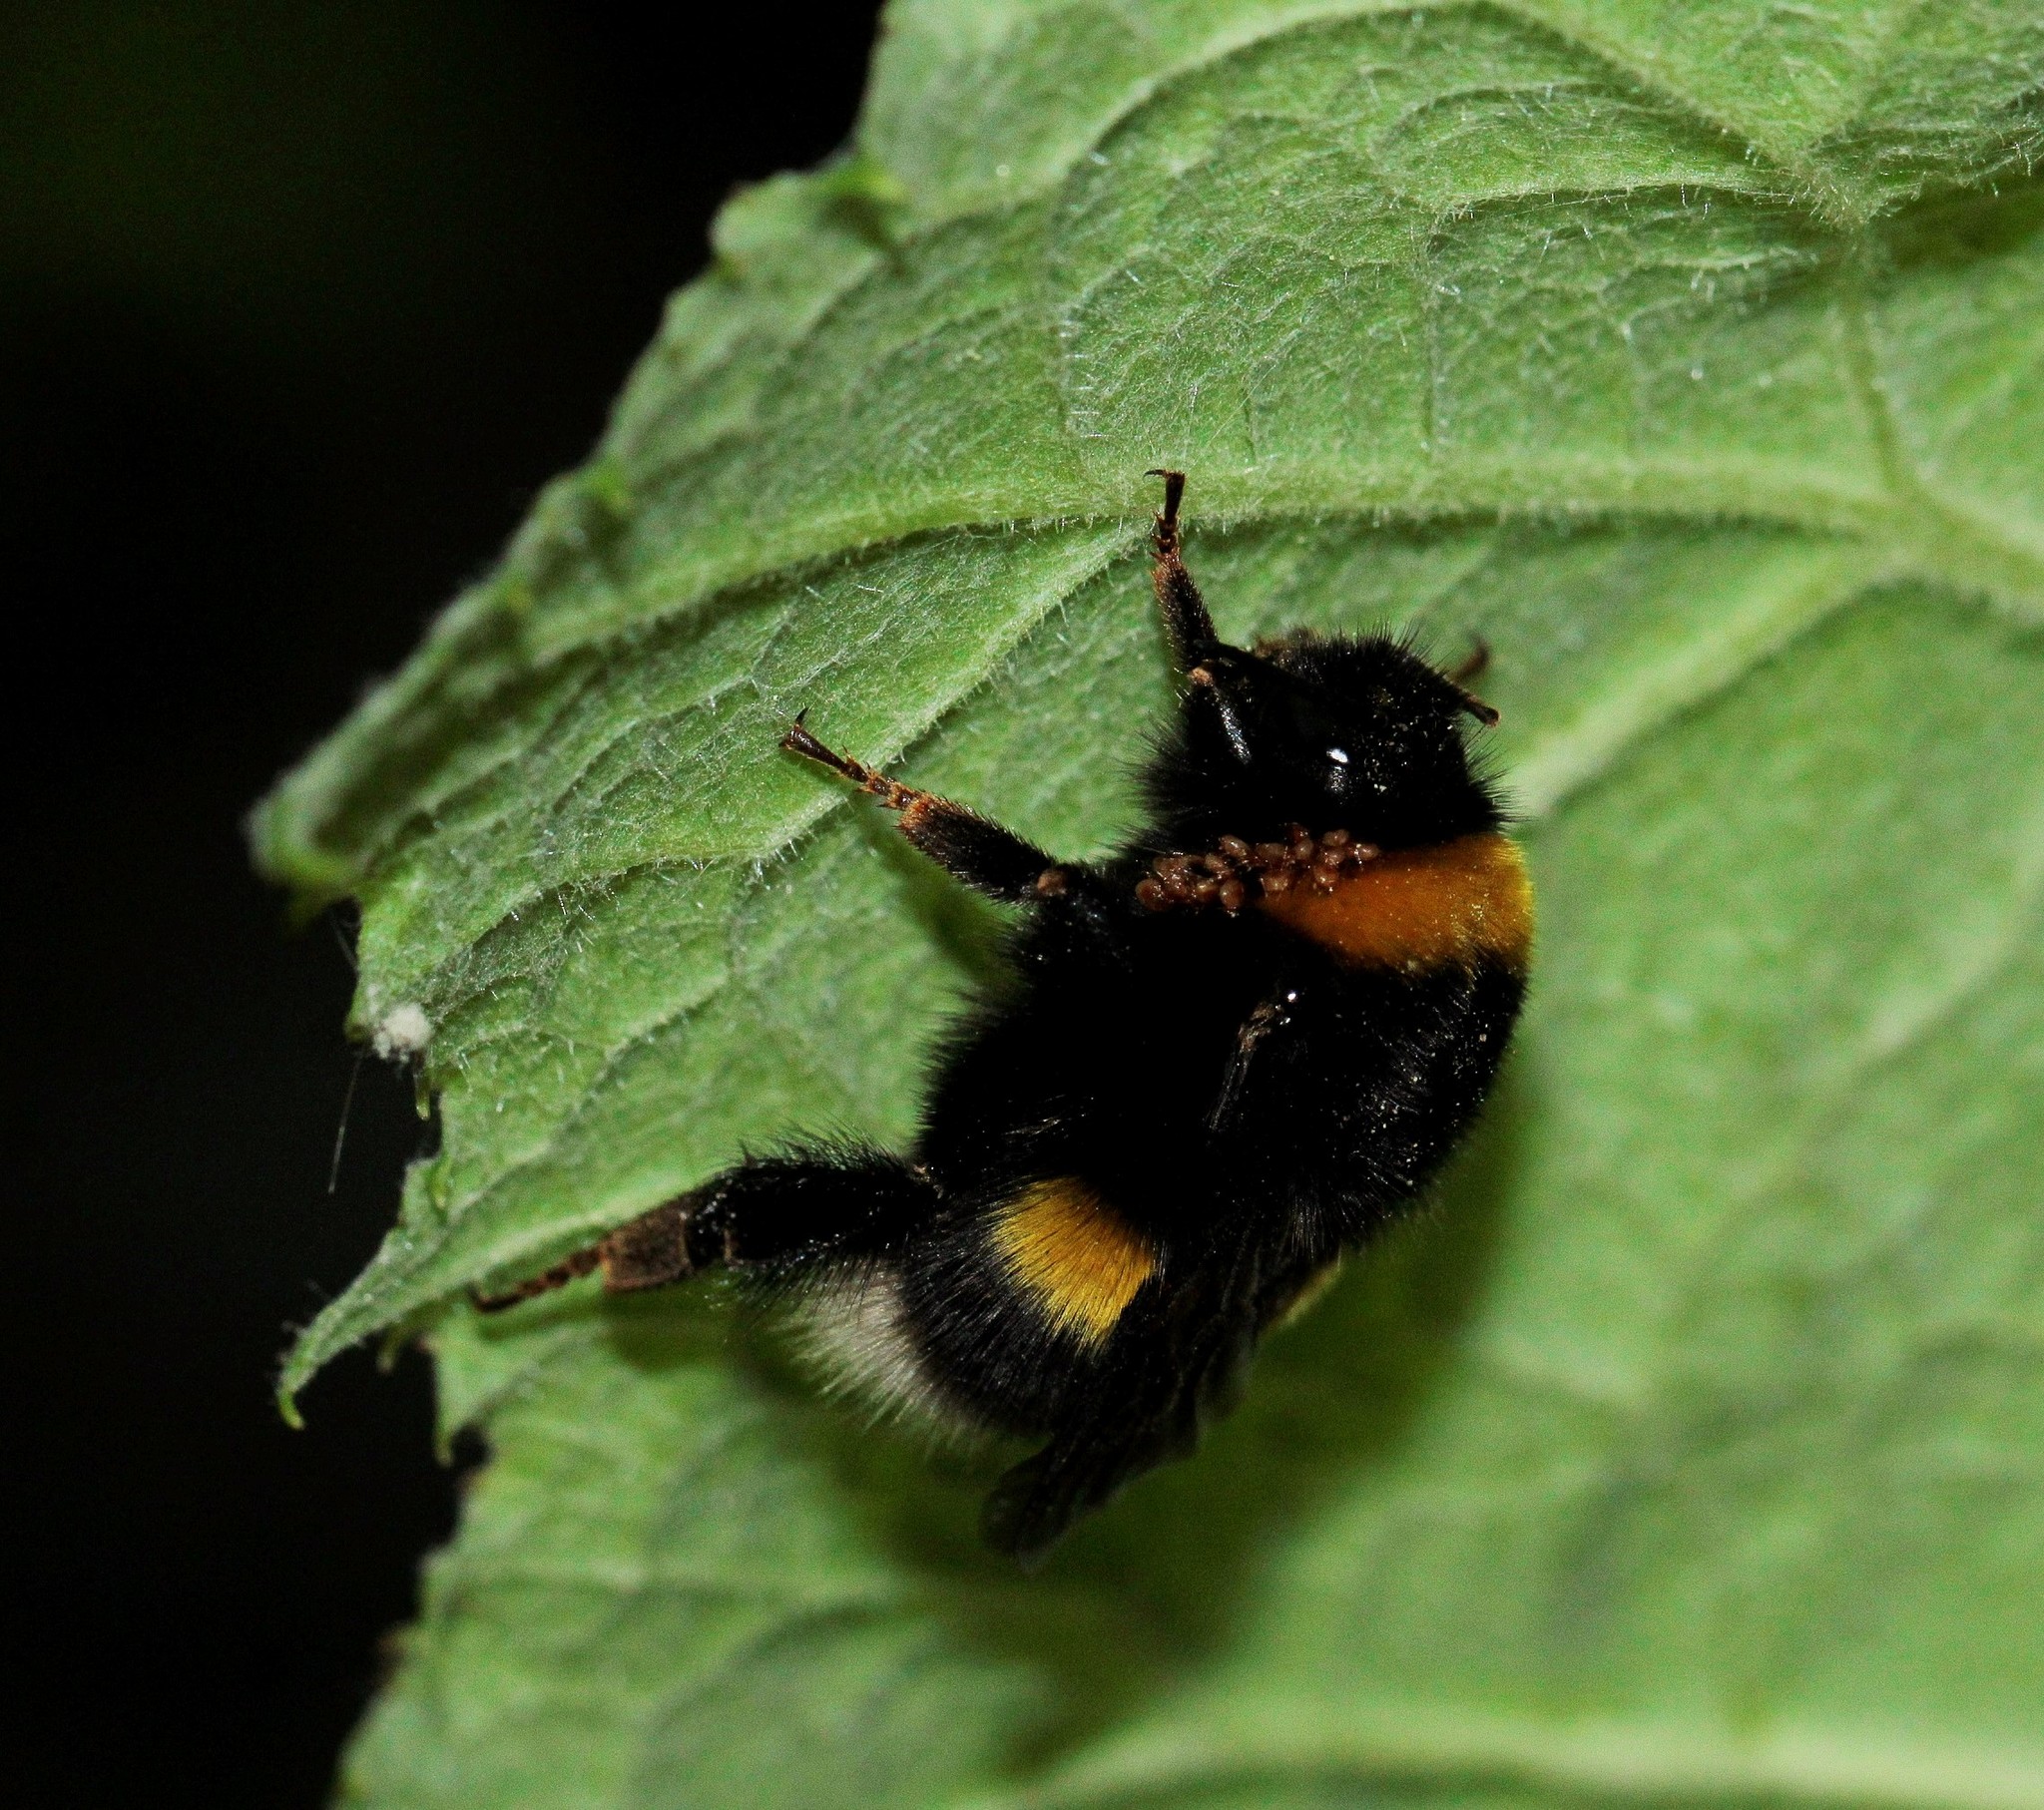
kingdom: Animalia
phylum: Arthropoda
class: Insecta
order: Hymenoptera
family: Apidae
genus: Bombus
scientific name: Bombus
